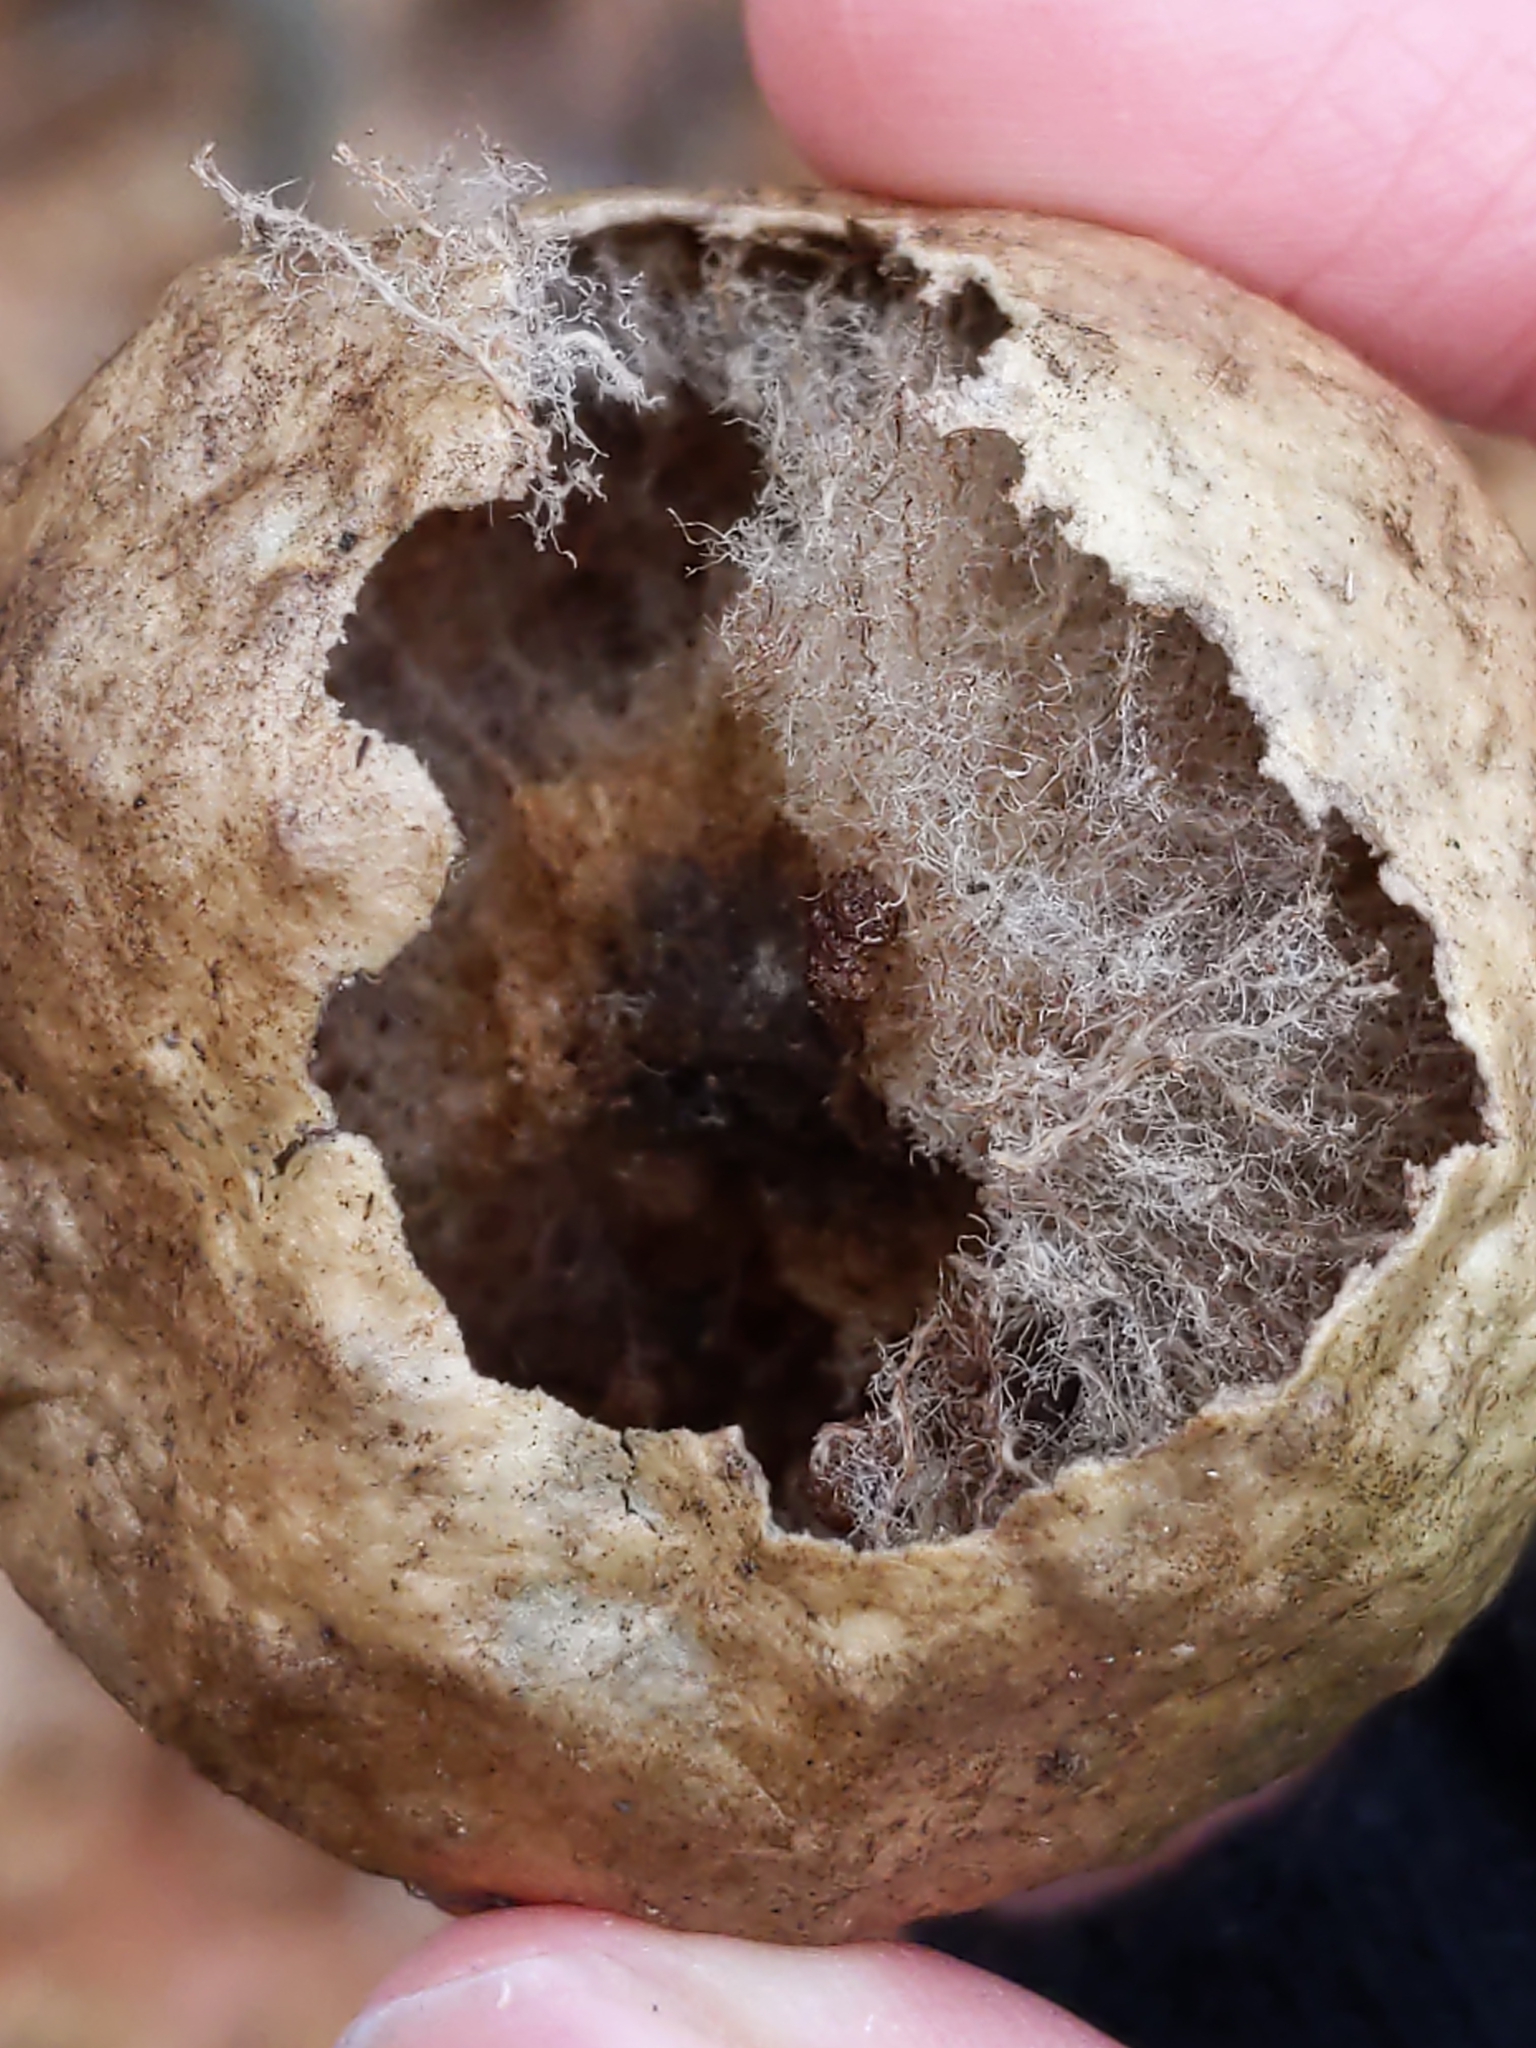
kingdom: Animalia
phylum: Arthropoda
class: Insecta
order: Hymenoptera
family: Cynipidae
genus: Amphibolips
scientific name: Amphibolips
